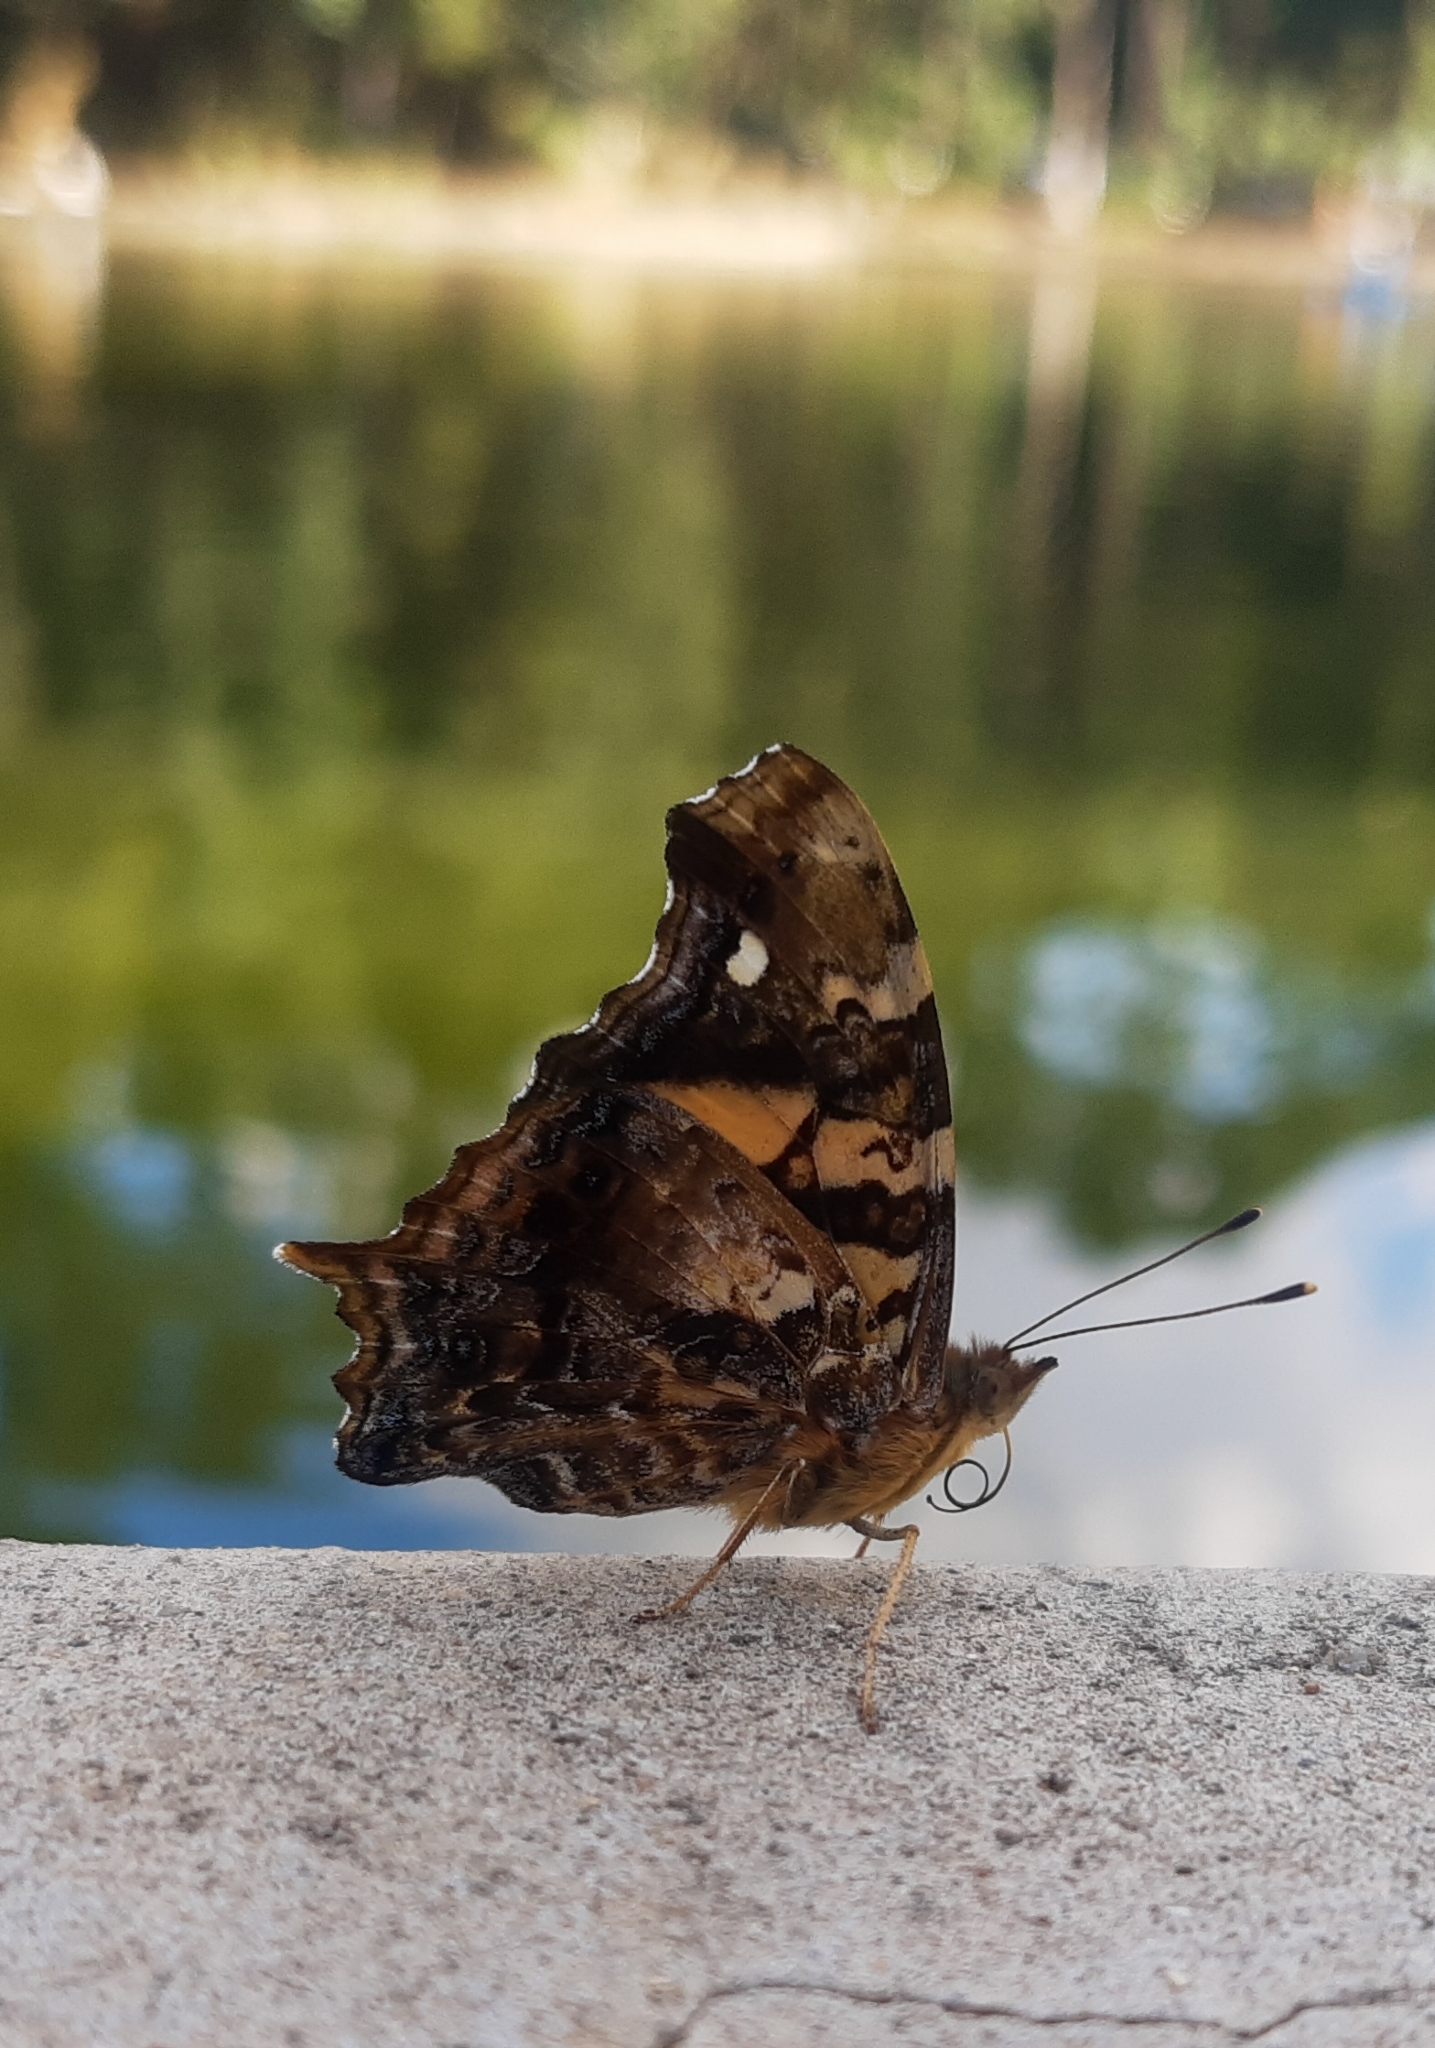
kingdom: Animalia
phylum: Arthropoda
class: Insecta
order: Lepidoptera
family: Nymphalidae
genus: Hypanartia
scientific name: Hypanartia bella
